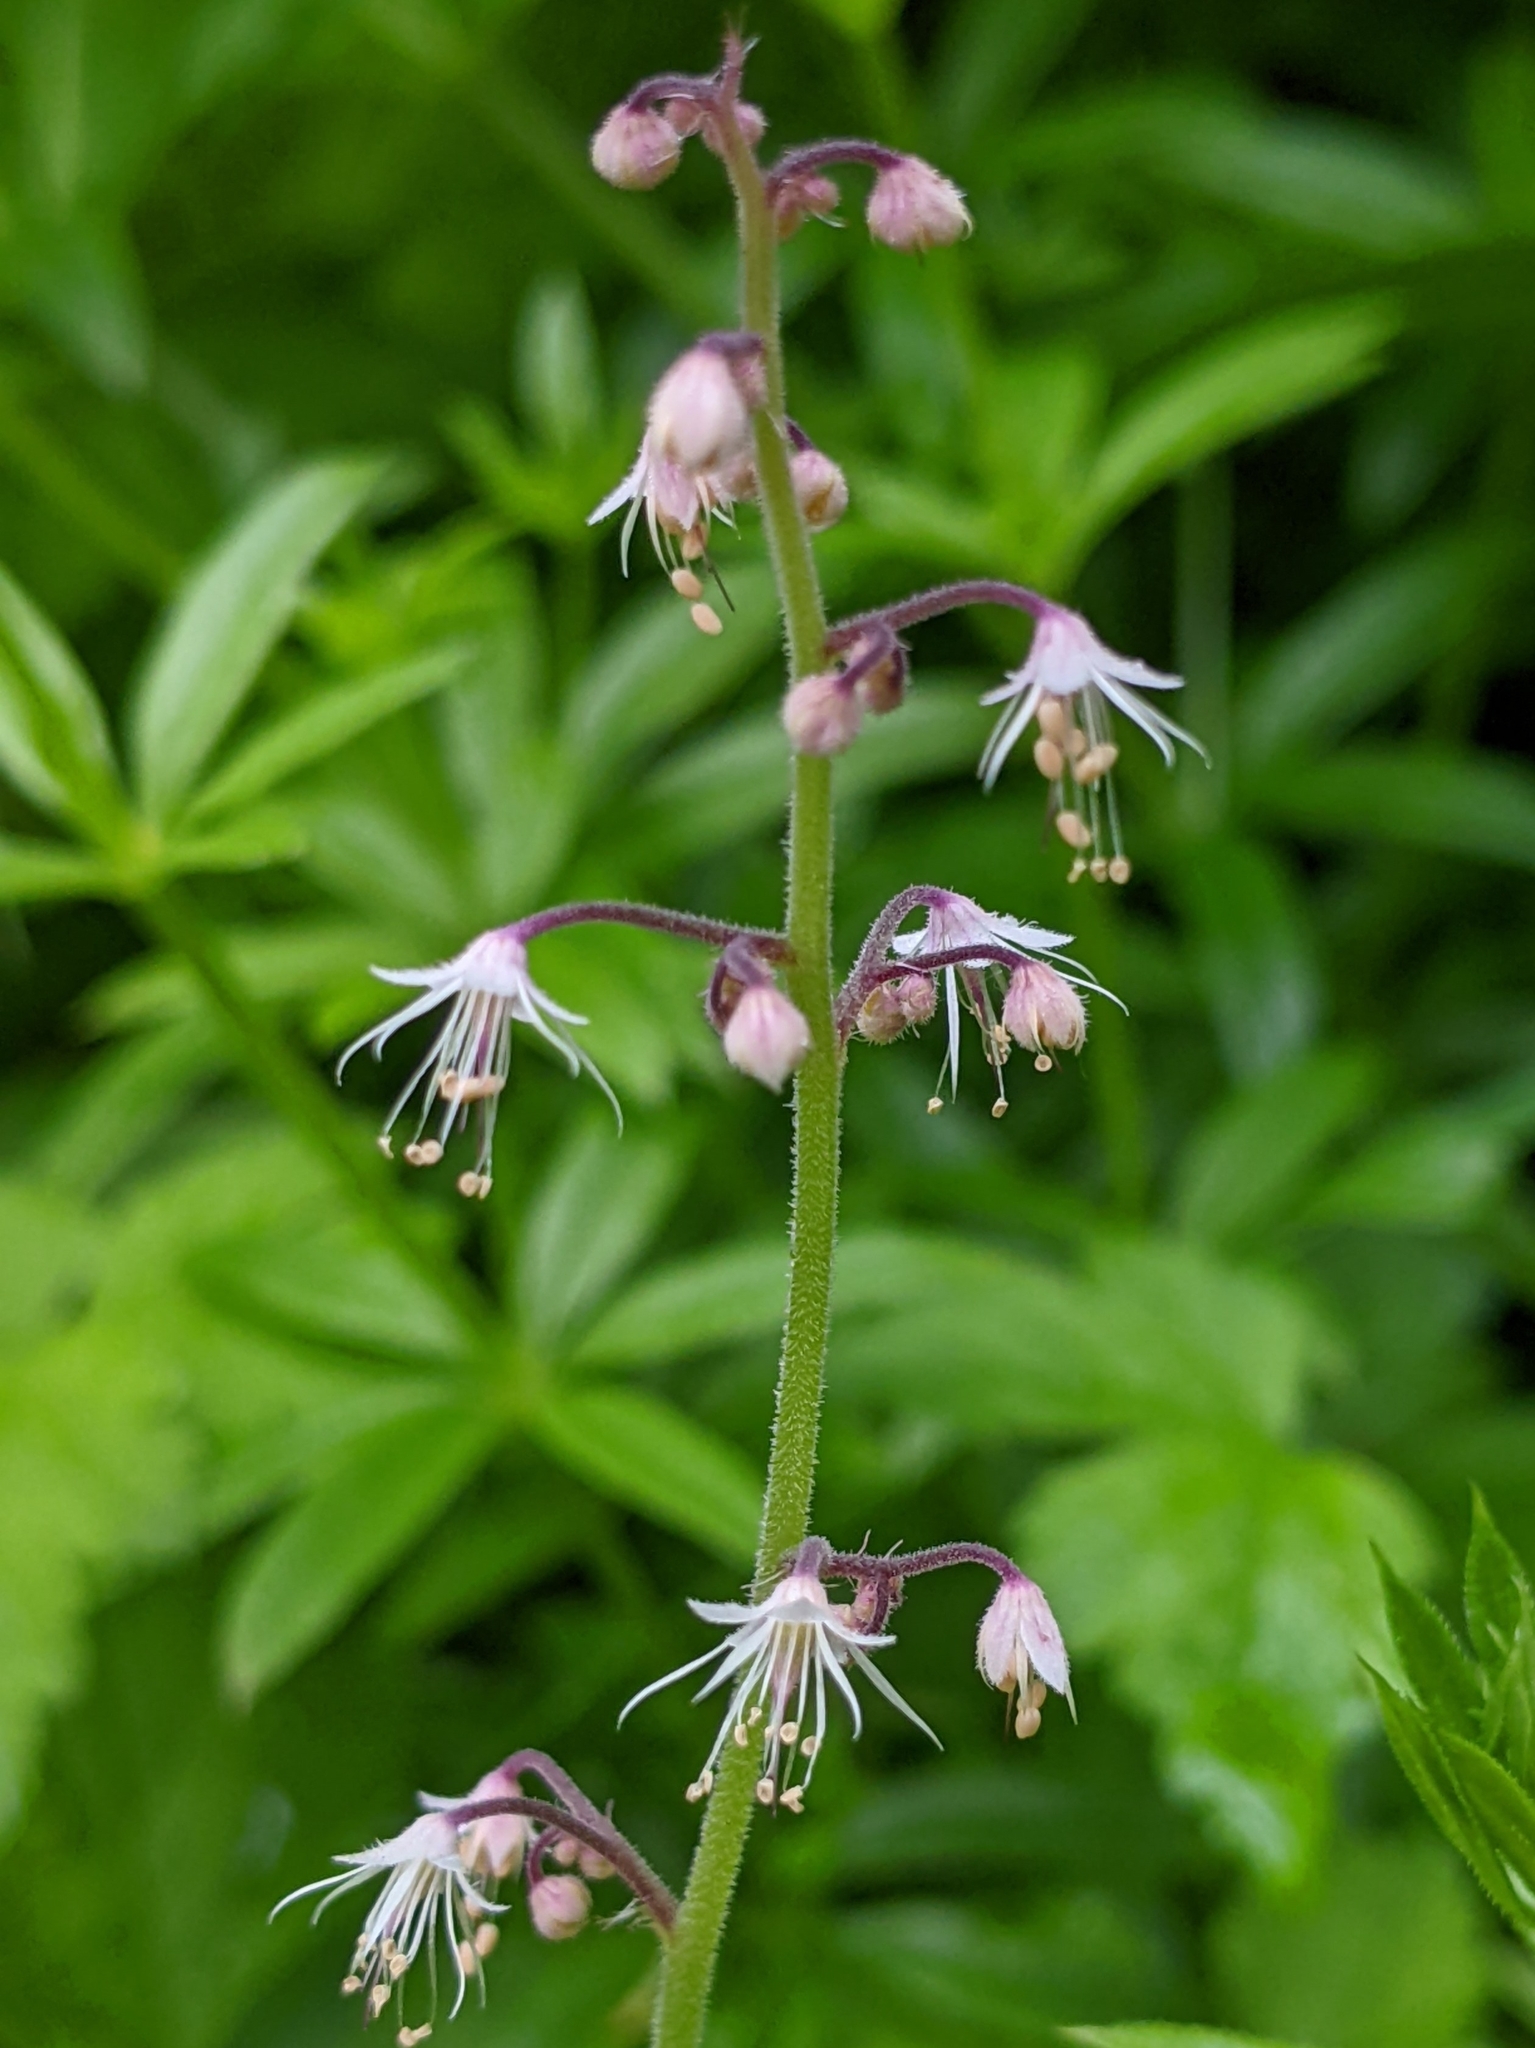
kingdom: Plantae
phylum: Tracheophyta
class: Magnoliopsida
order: Saxifragales
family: Saxifragaceae
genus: Tiarella
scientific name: Tiarella trifoliata
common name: Sugar-scoop
